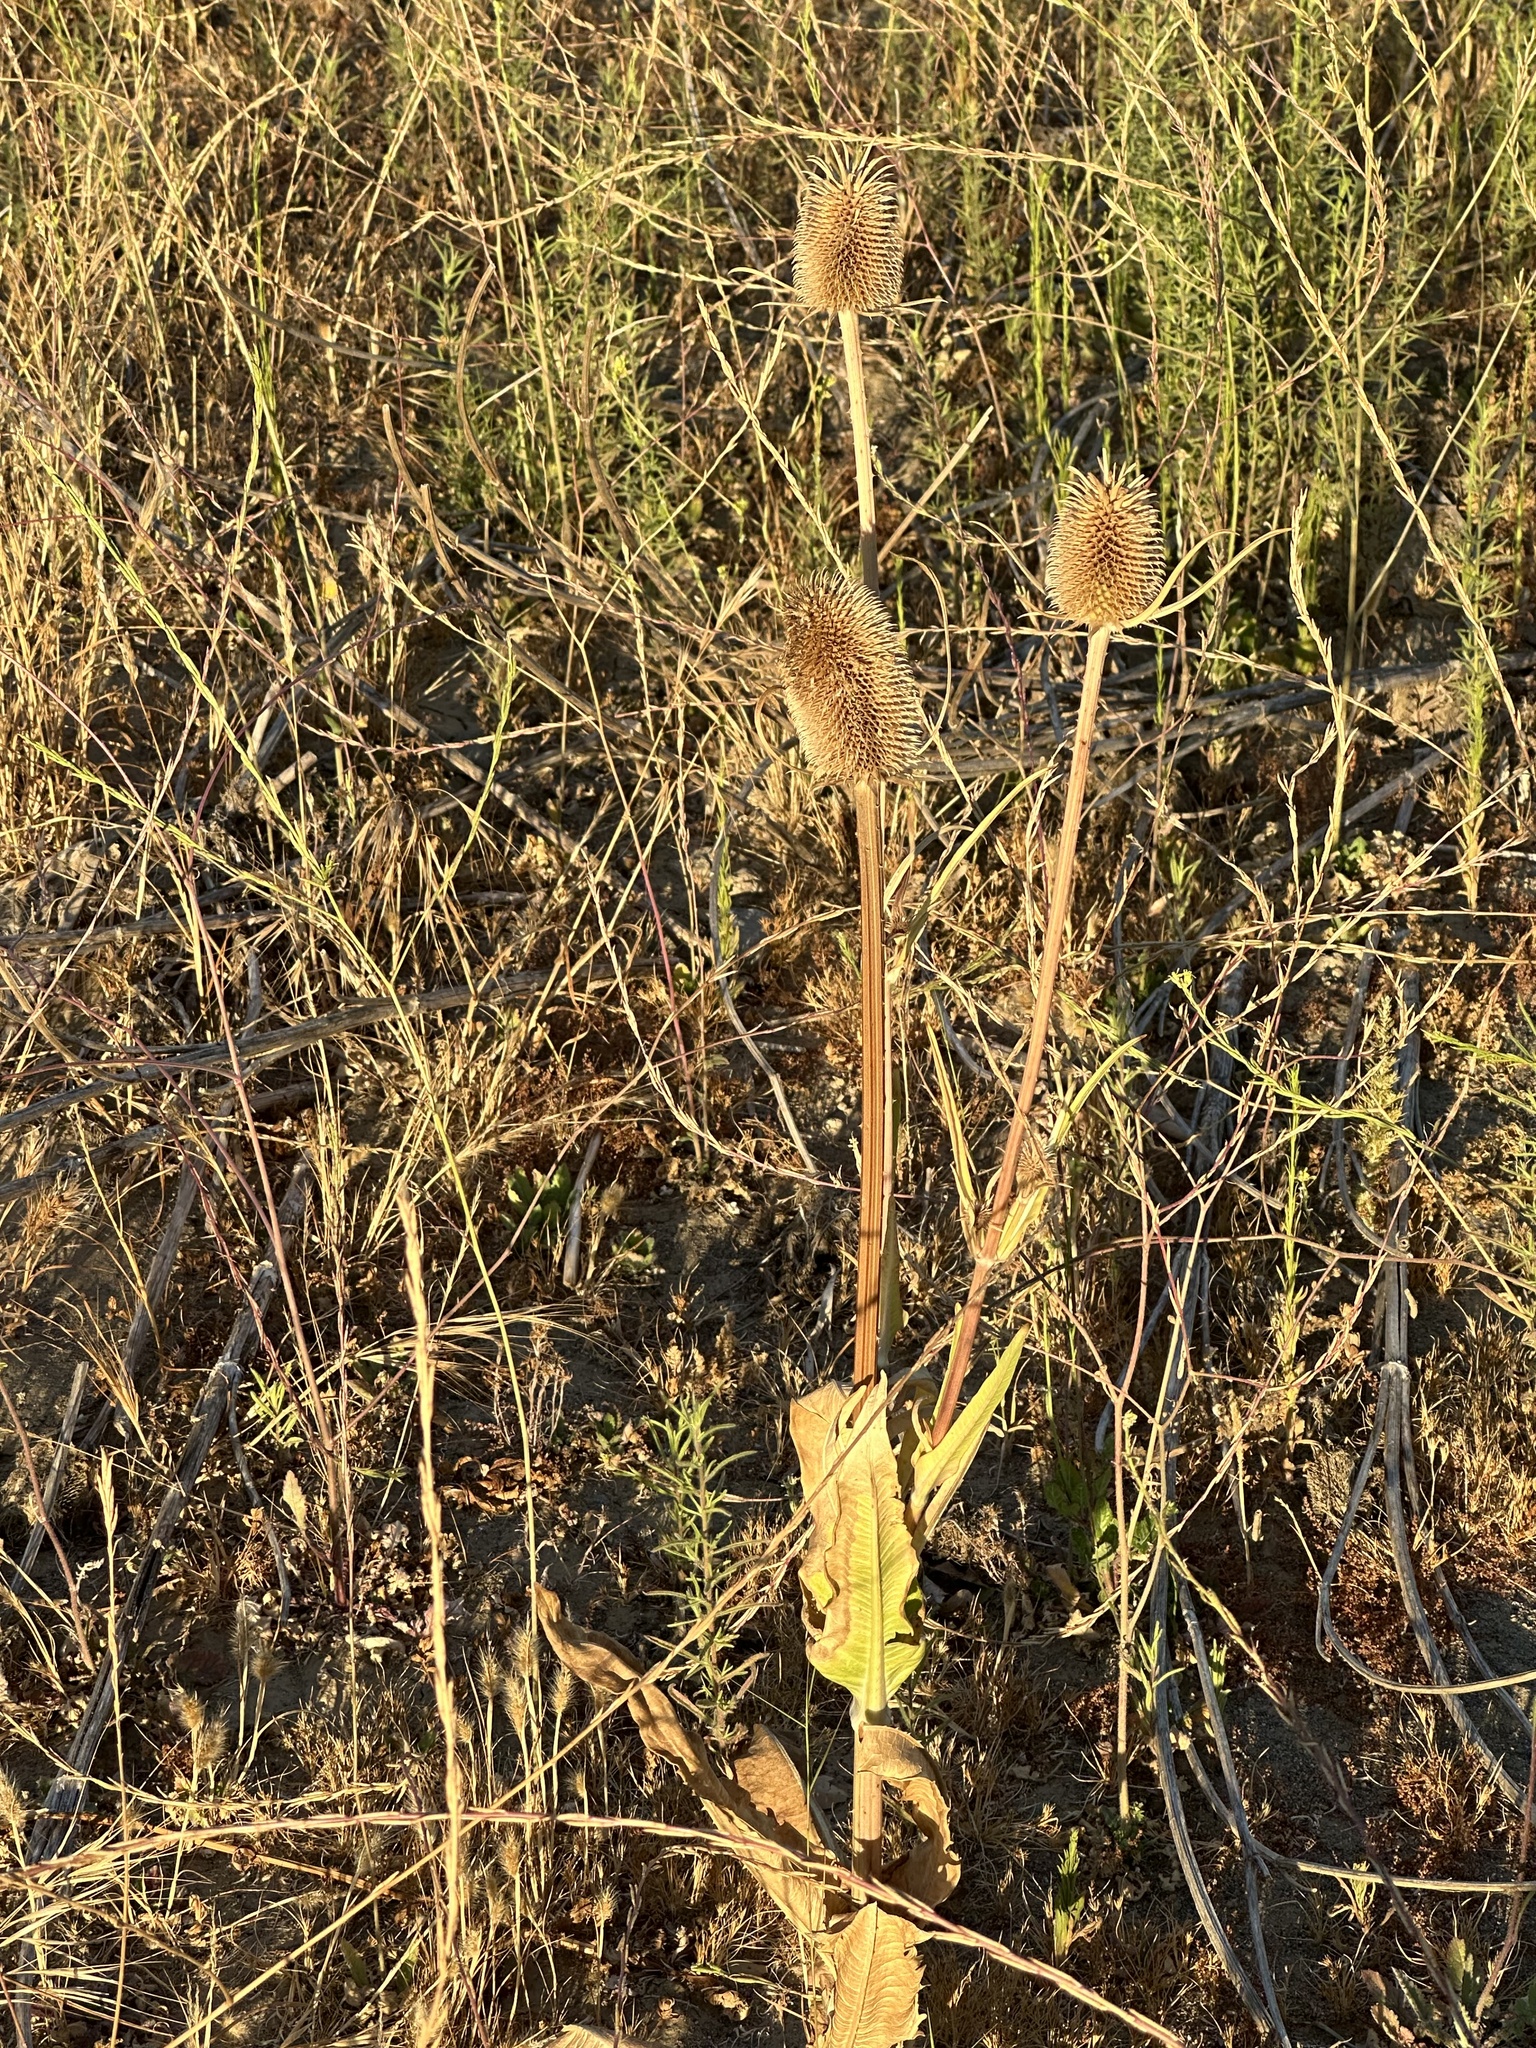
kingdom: Plantae
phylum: Tracheophyta
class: Magnoliopsida
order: Dipsacales
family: Caprifoliaceae
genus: Dipsacus
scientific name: Dipsacus sativus
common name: Fuller's teasel
